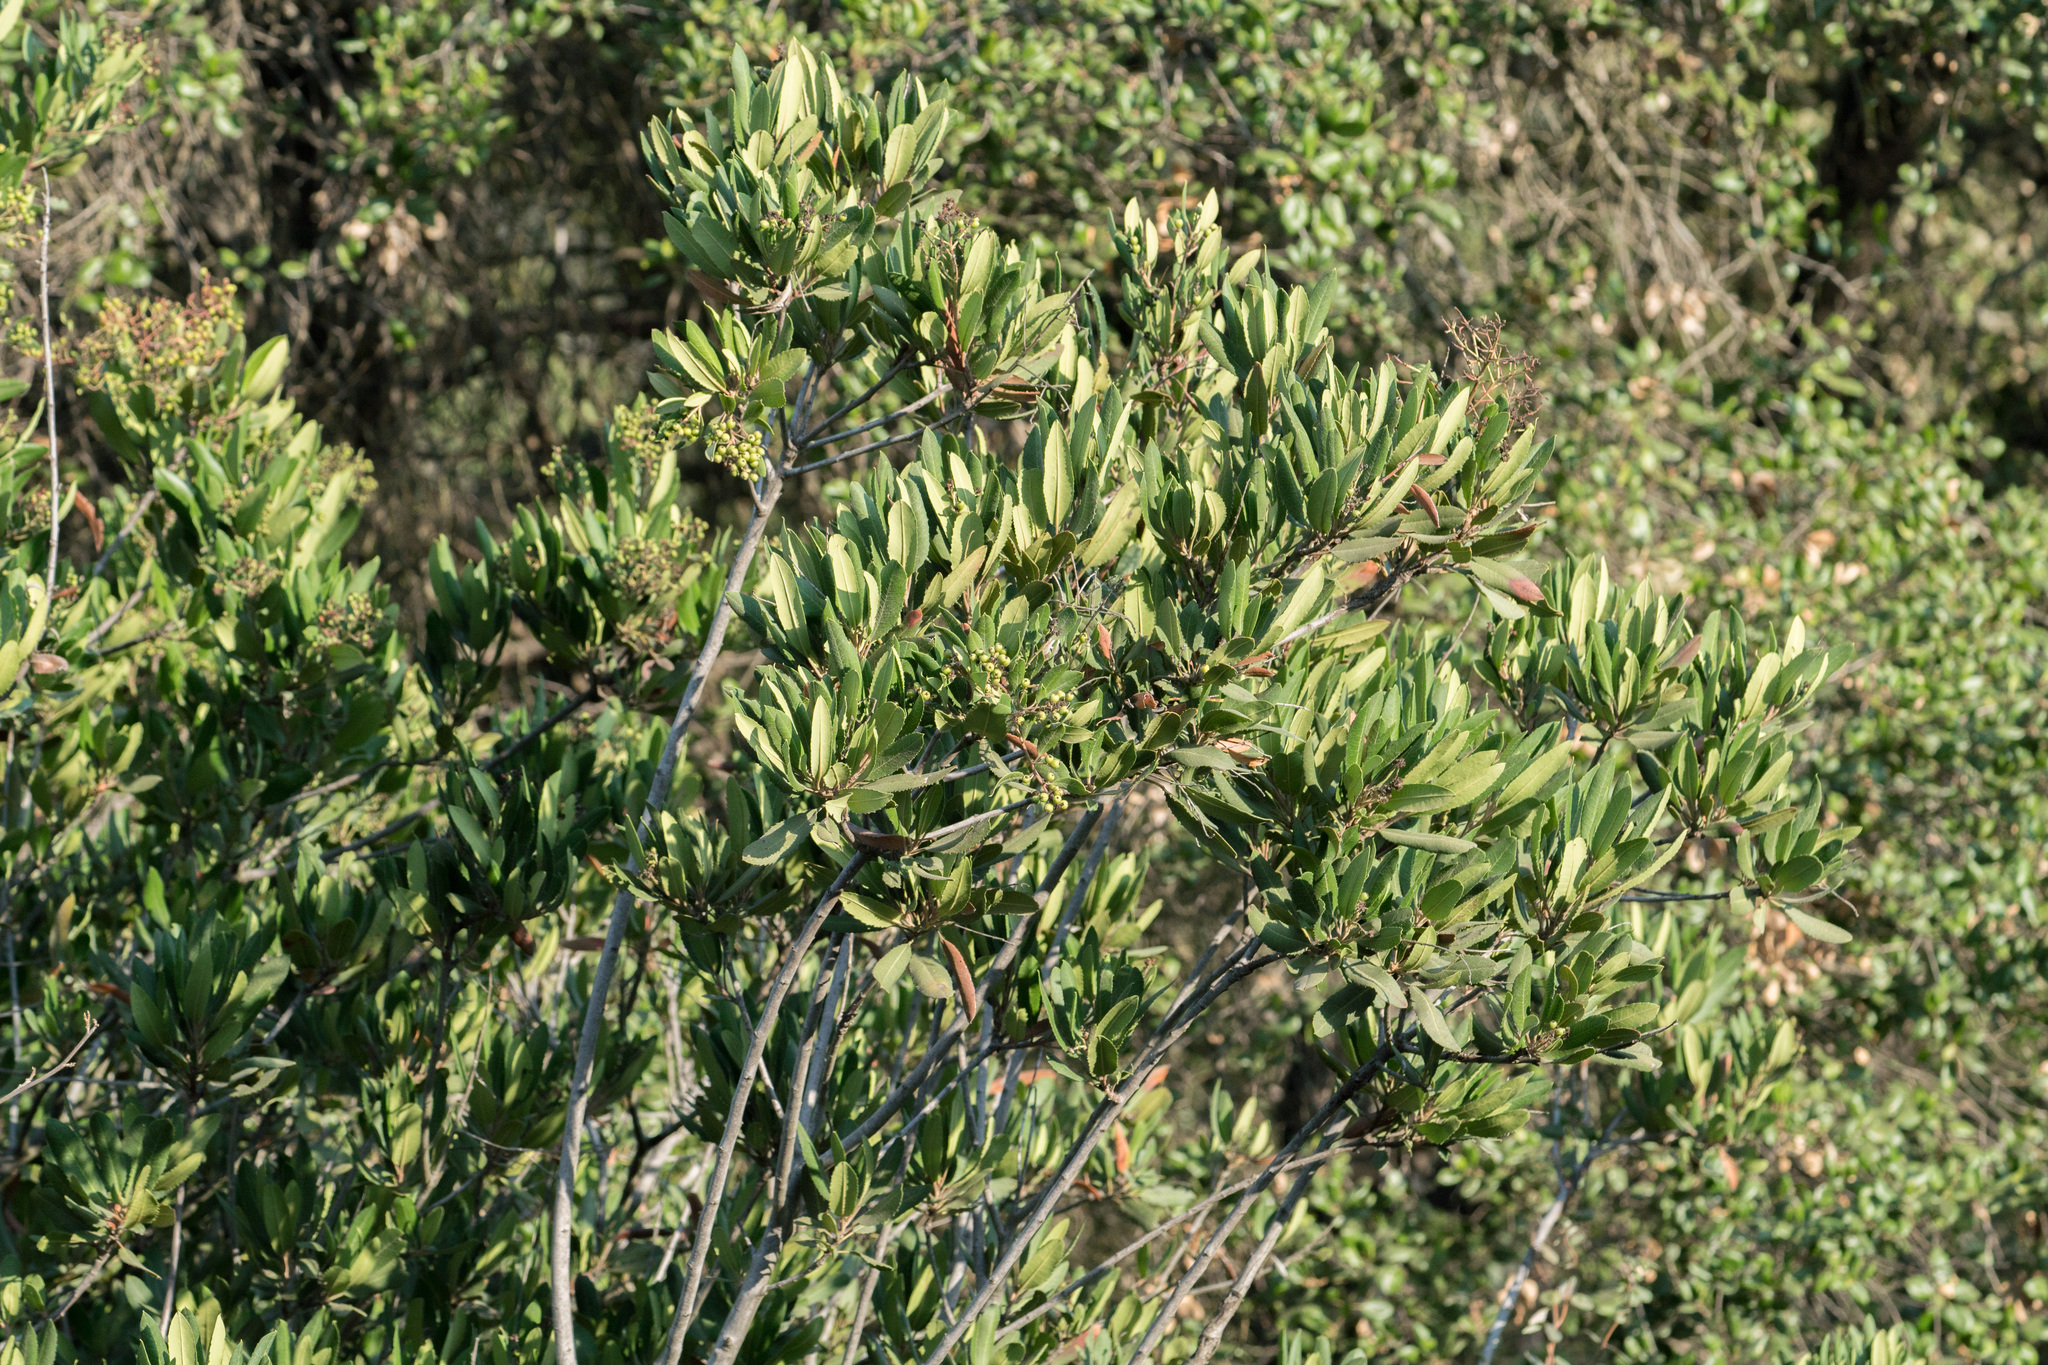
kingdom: Plantae
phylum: Tracheophyta
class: Magnoliopsida
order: Rosales
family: Rosaceae
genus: Heteromeles
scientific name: Heteromeles arbutifolia
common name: California-holly
